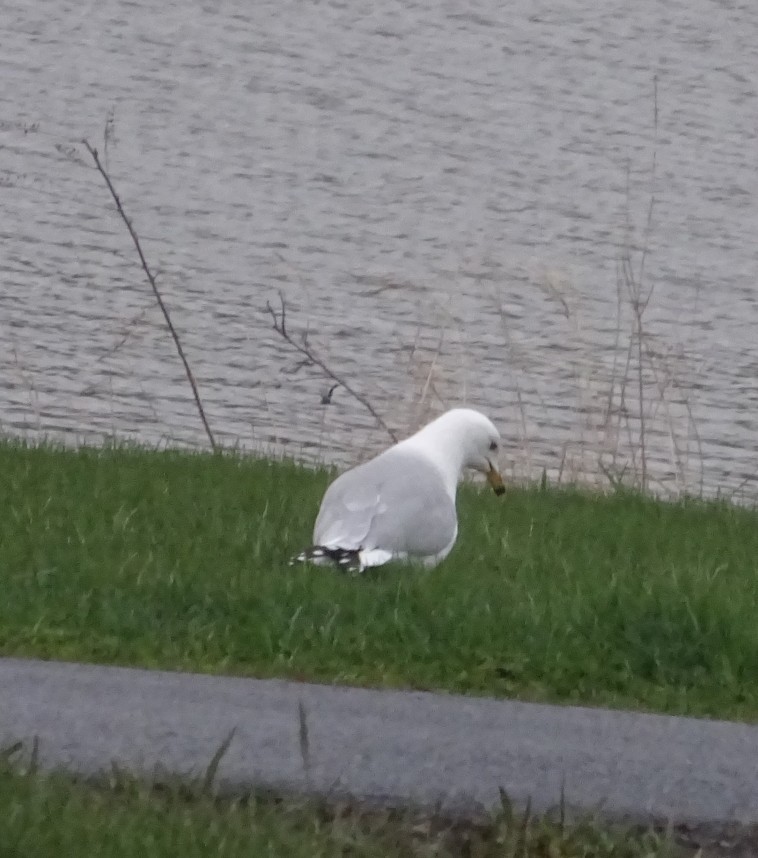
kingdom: Animalia
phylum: Chordata
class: Aves
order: Charadriiformes
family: Laridae
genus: Larus
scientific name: Larus delawarensis
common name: Ring-billed gull
